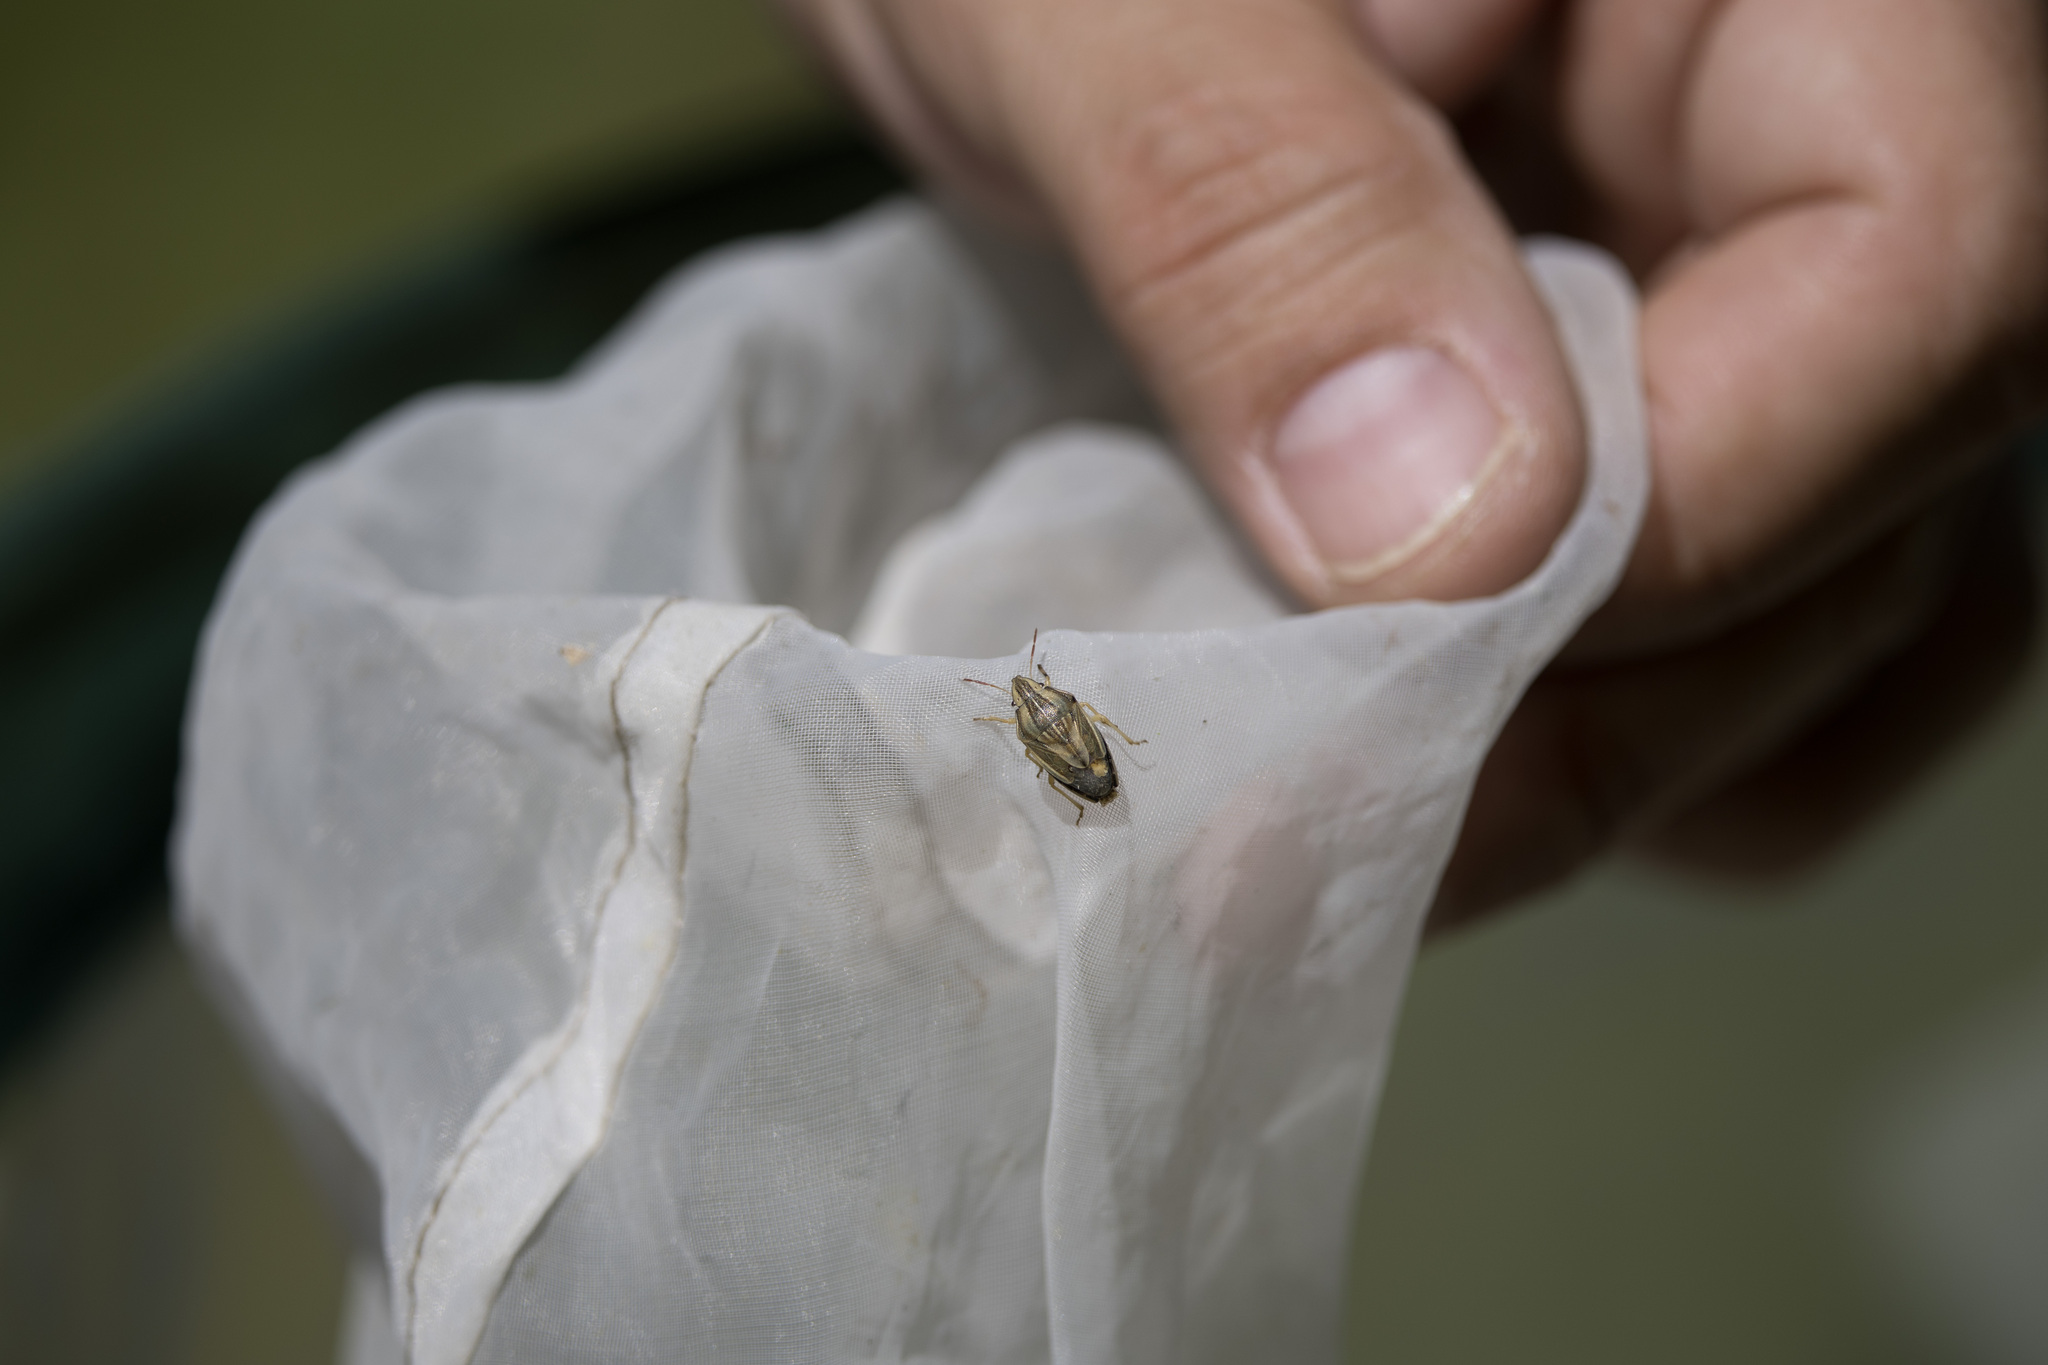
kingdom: Animalia
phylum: Arthropoda
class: Insecta
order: Hemiptera
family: Pentatomidae
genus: Aelia
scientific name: Aelia acuminata
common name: Bishop's mitre
